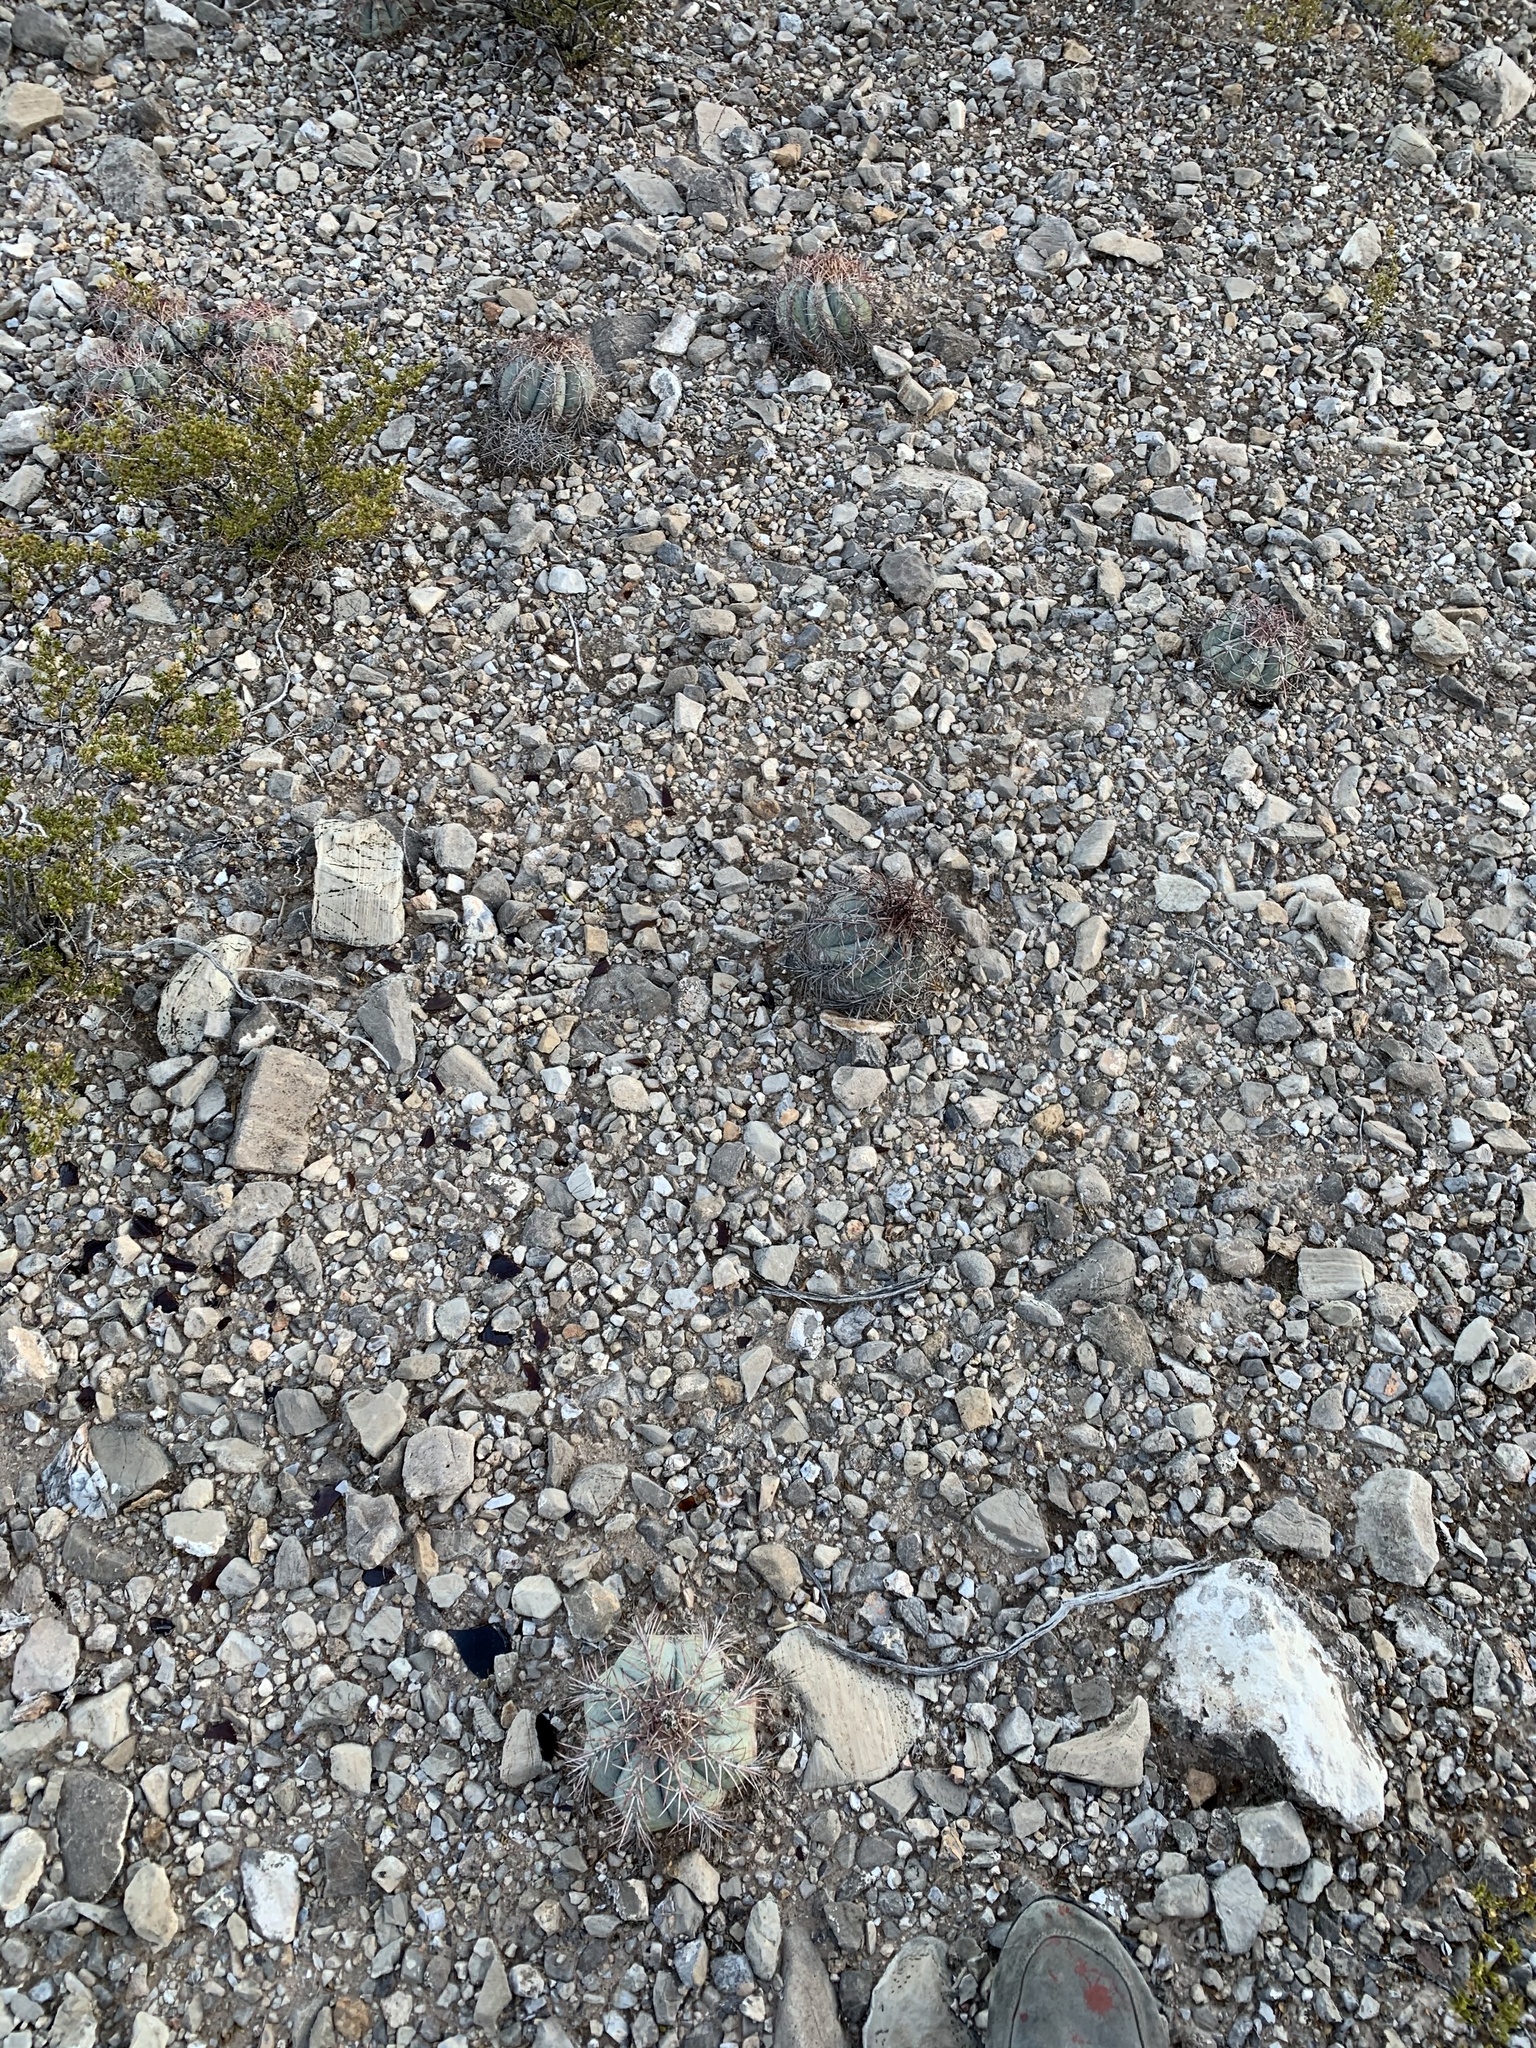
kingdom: Plantae
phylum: Tracheophyta
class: Magnoliopsida
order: Caryophyllales
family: Cactaceae
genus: Echinocactus
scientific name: Echinocactus horizonthalonius
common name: Devilshead
